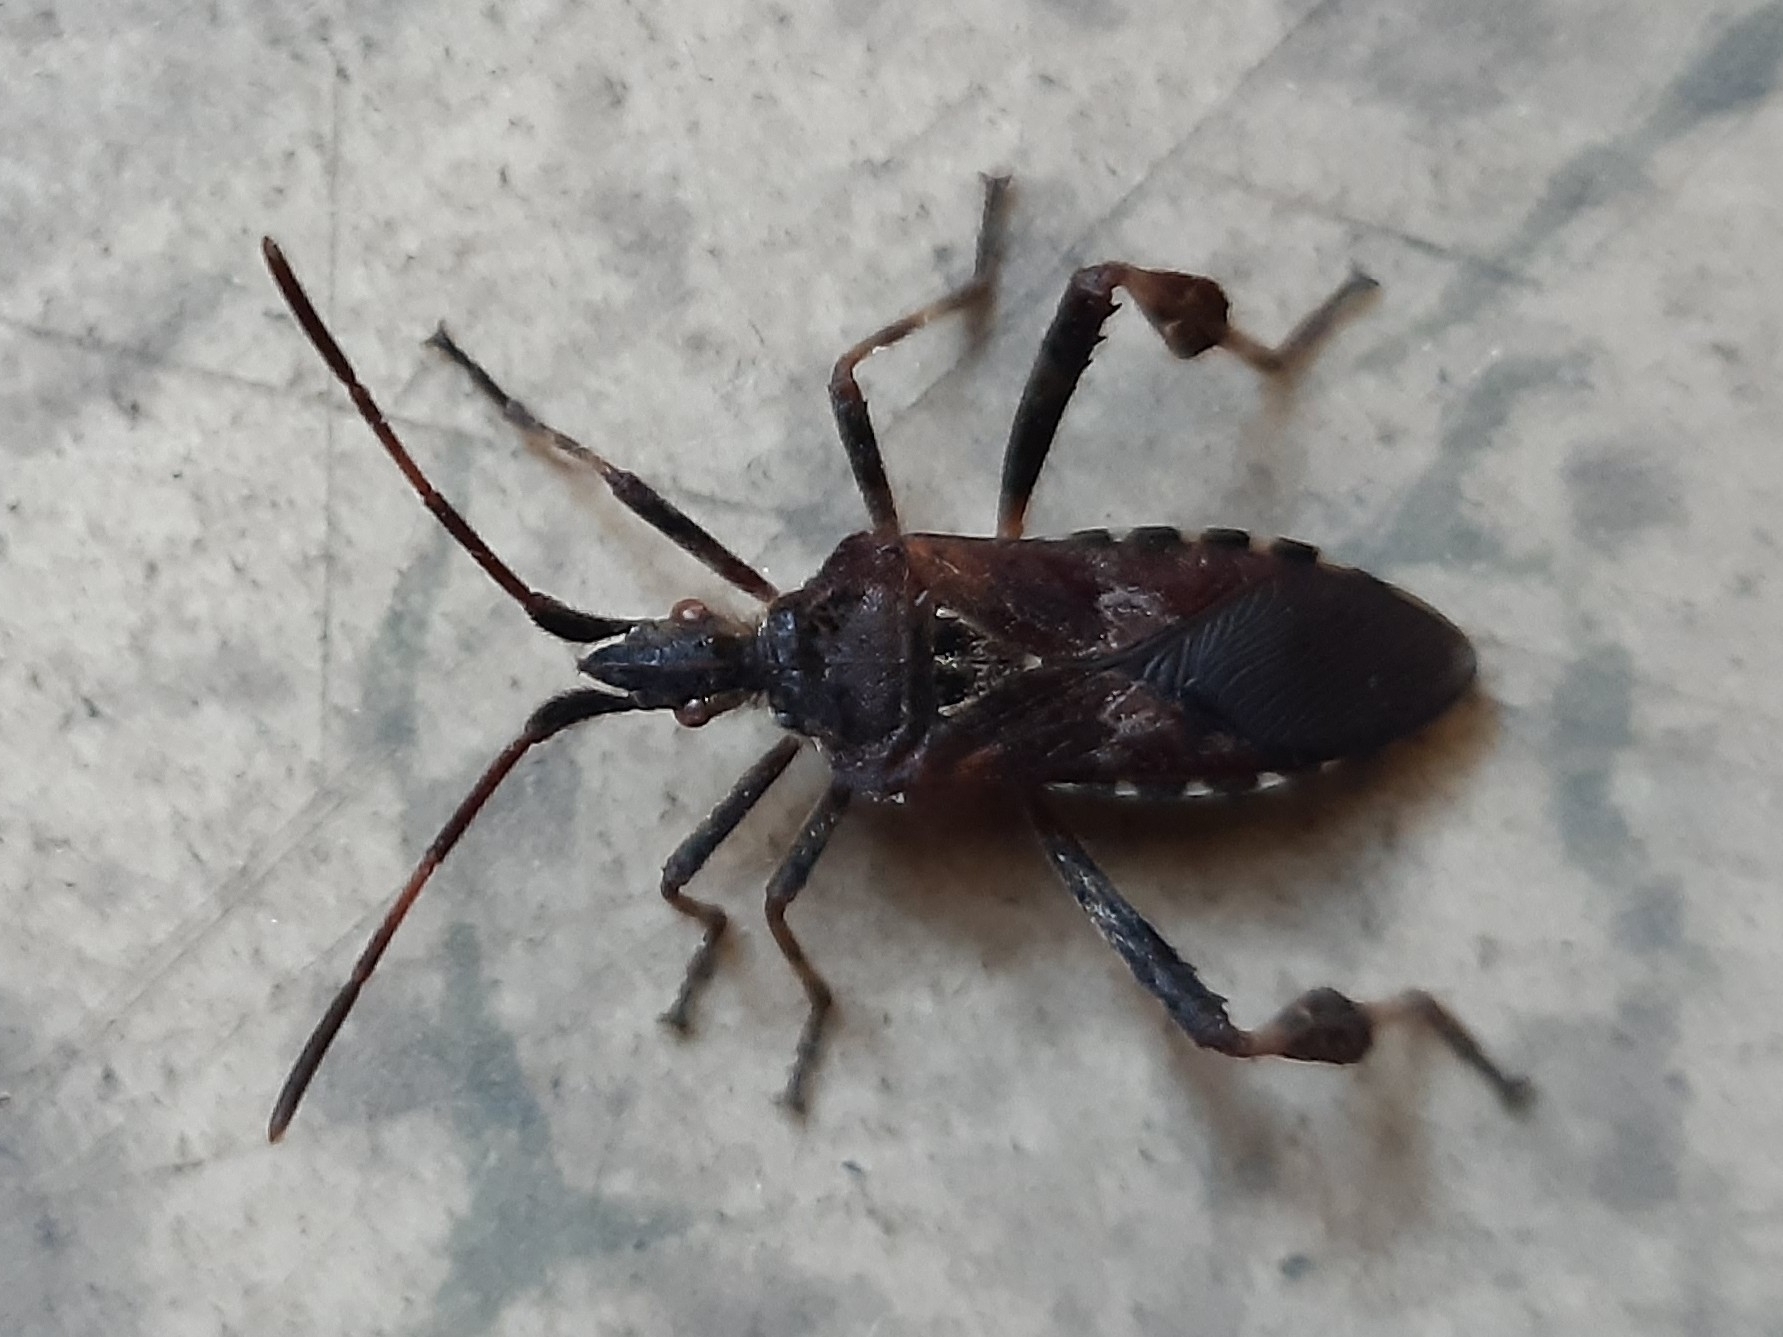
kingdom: Animalia
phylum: Arthropoda
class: Insecta
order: Hemiptera
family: Coreidae
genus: Leptoglossus
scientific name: Leptoglossus occidentalis
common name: Western conifer-seed bug
